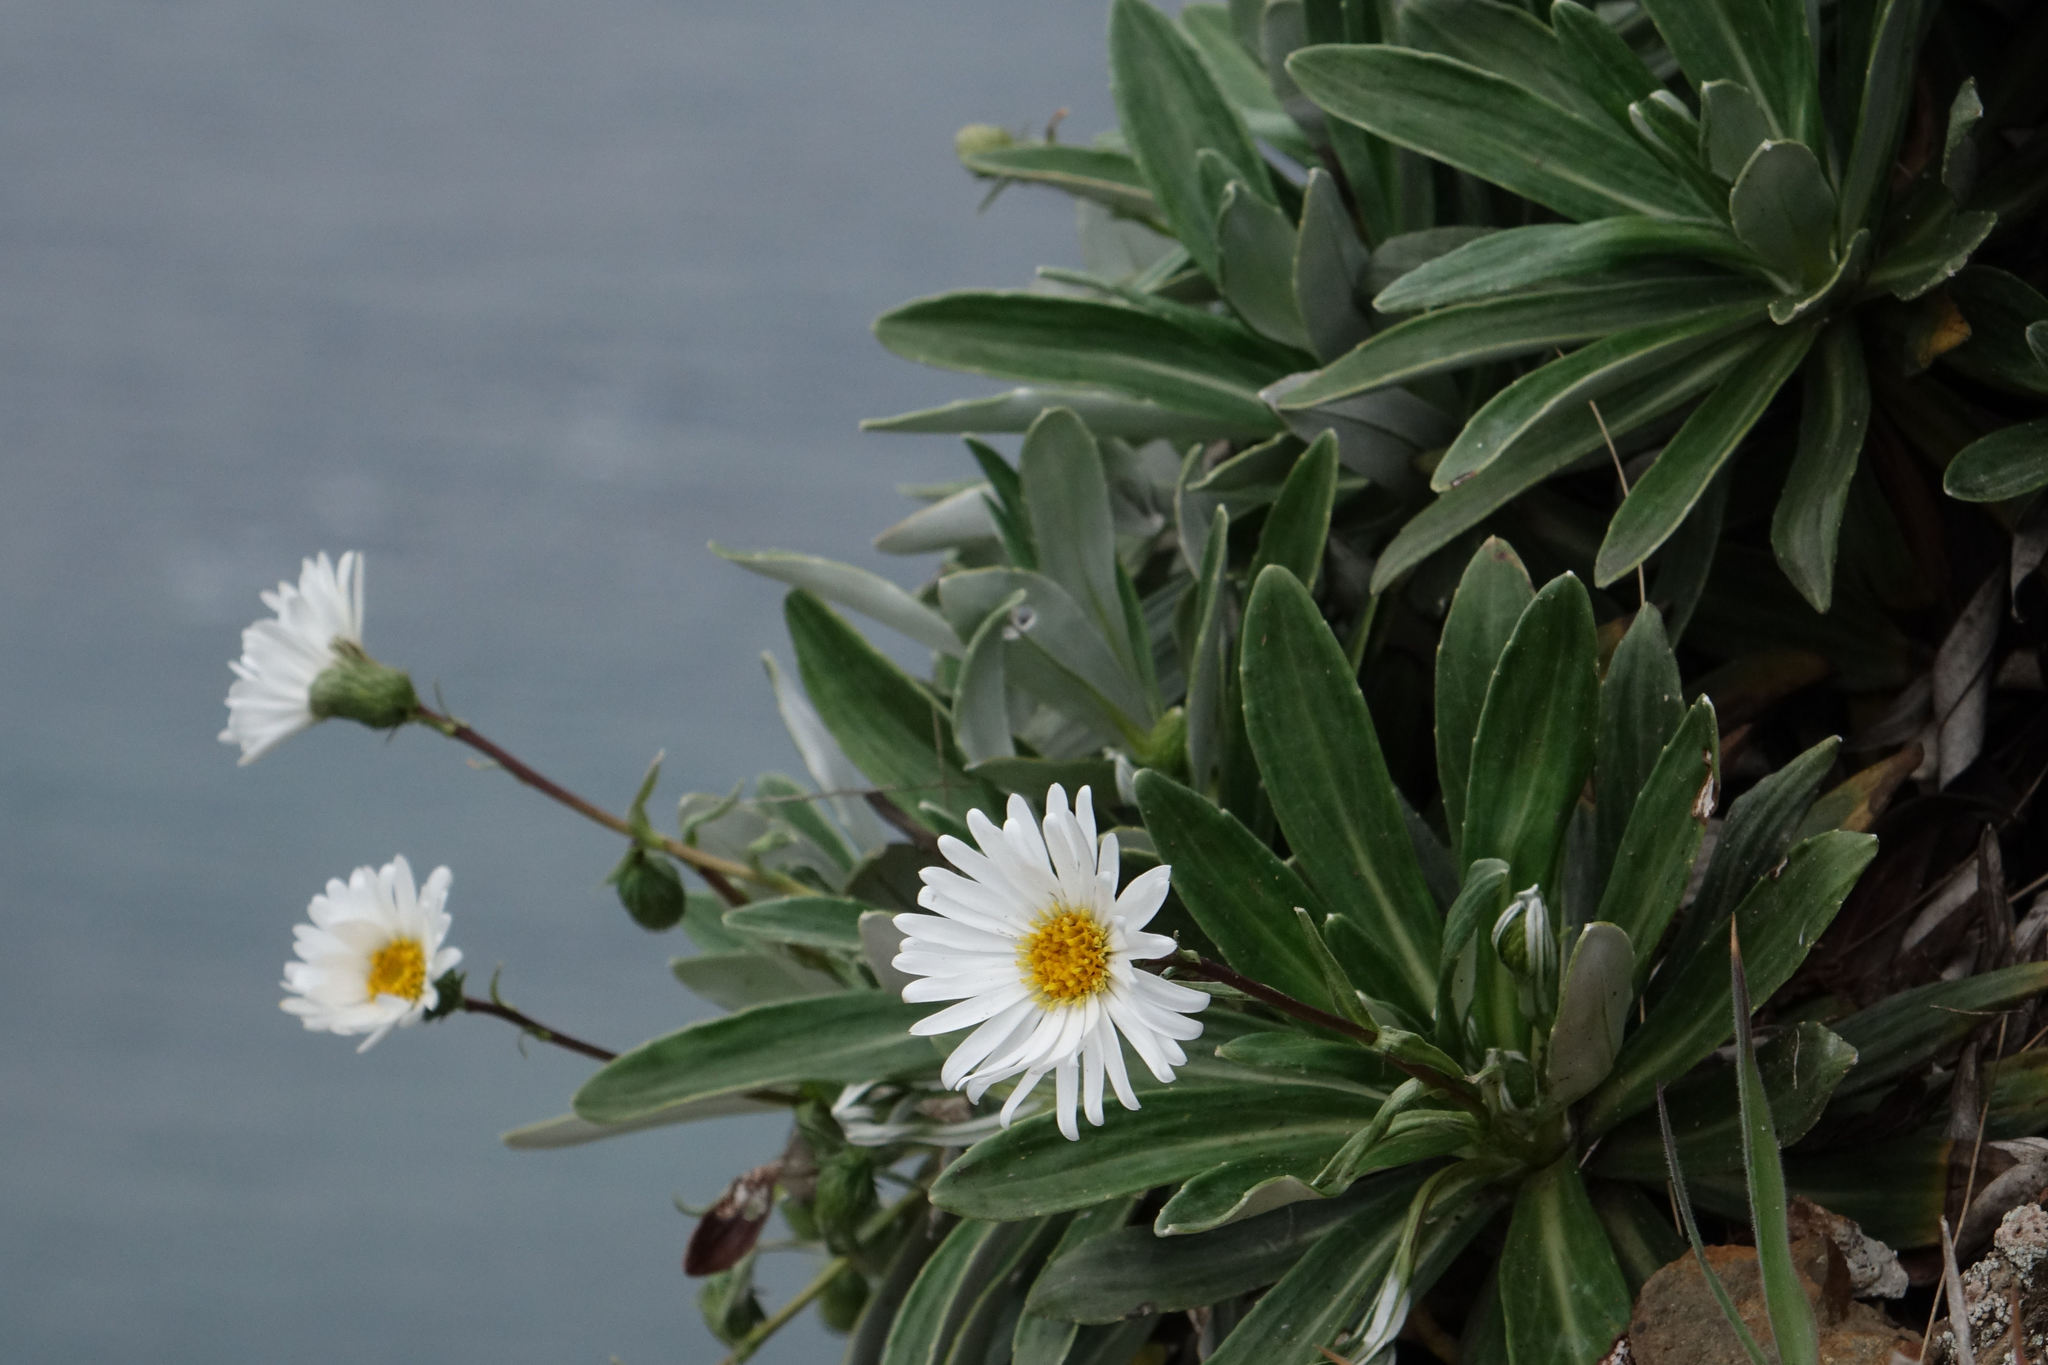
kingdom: Plantae
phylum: Tracheophyta
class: Magnoliopsida
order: Asterales
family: Asteraceae
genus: Celmisia
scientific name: Celmisia lindsayi
